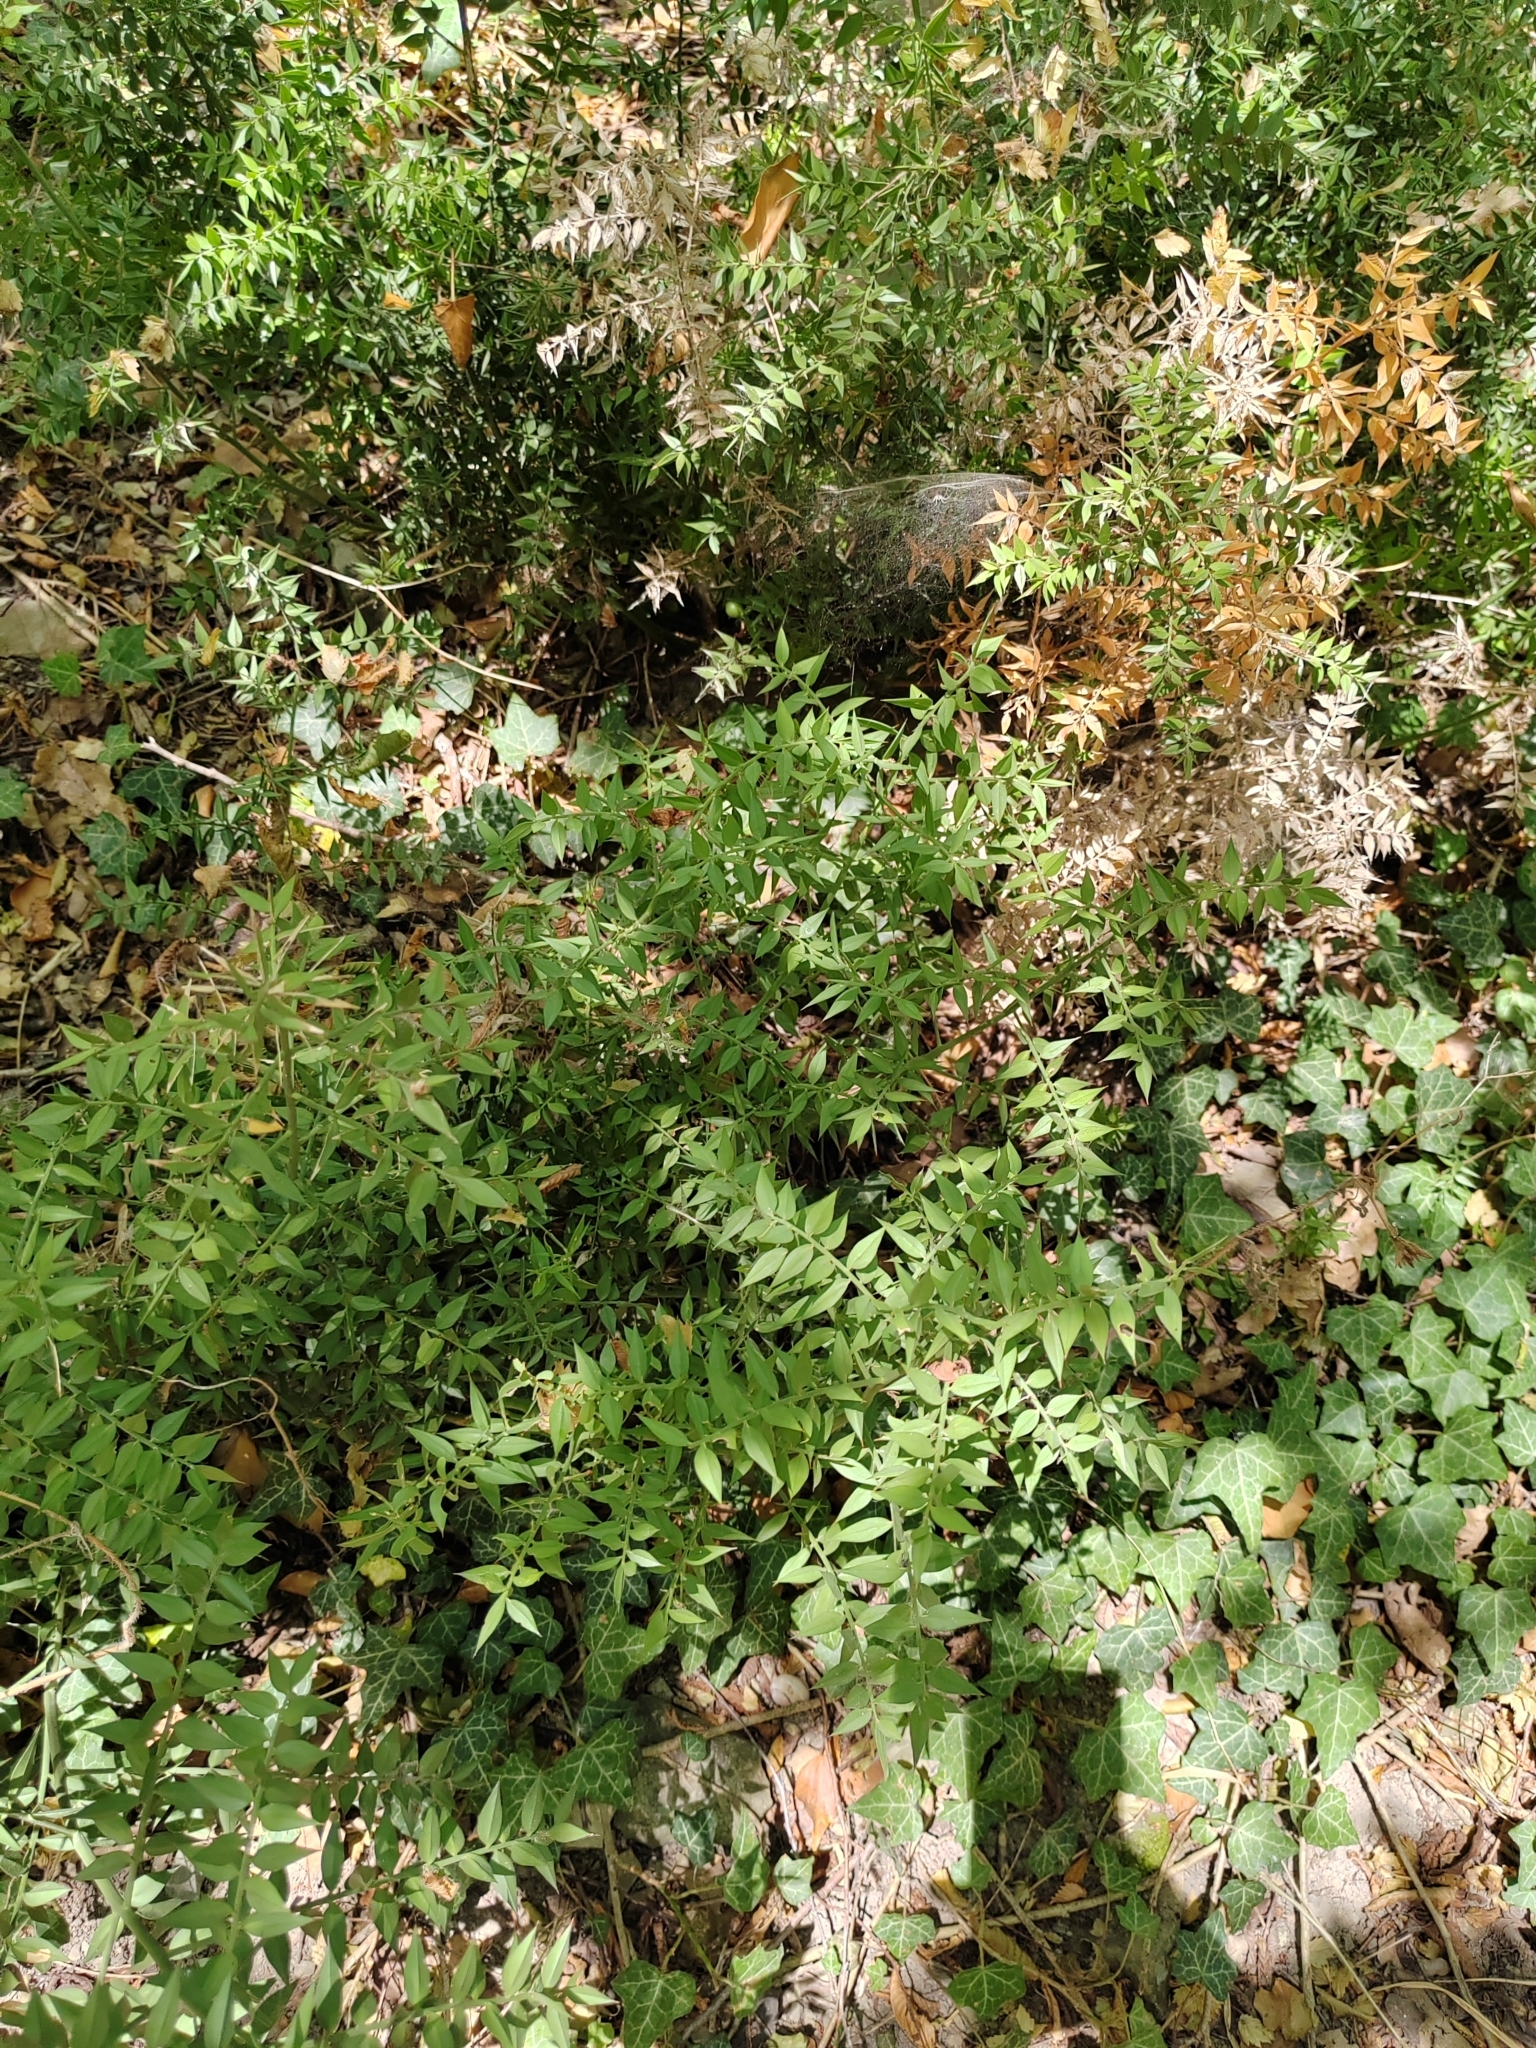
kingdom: Plantae
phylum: Tracheophyta
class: Liliopsida
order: Asparagales
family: Asparagaceae
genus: Ruscus
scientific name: Ruscus aculeatus
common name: Butcher's-broom
